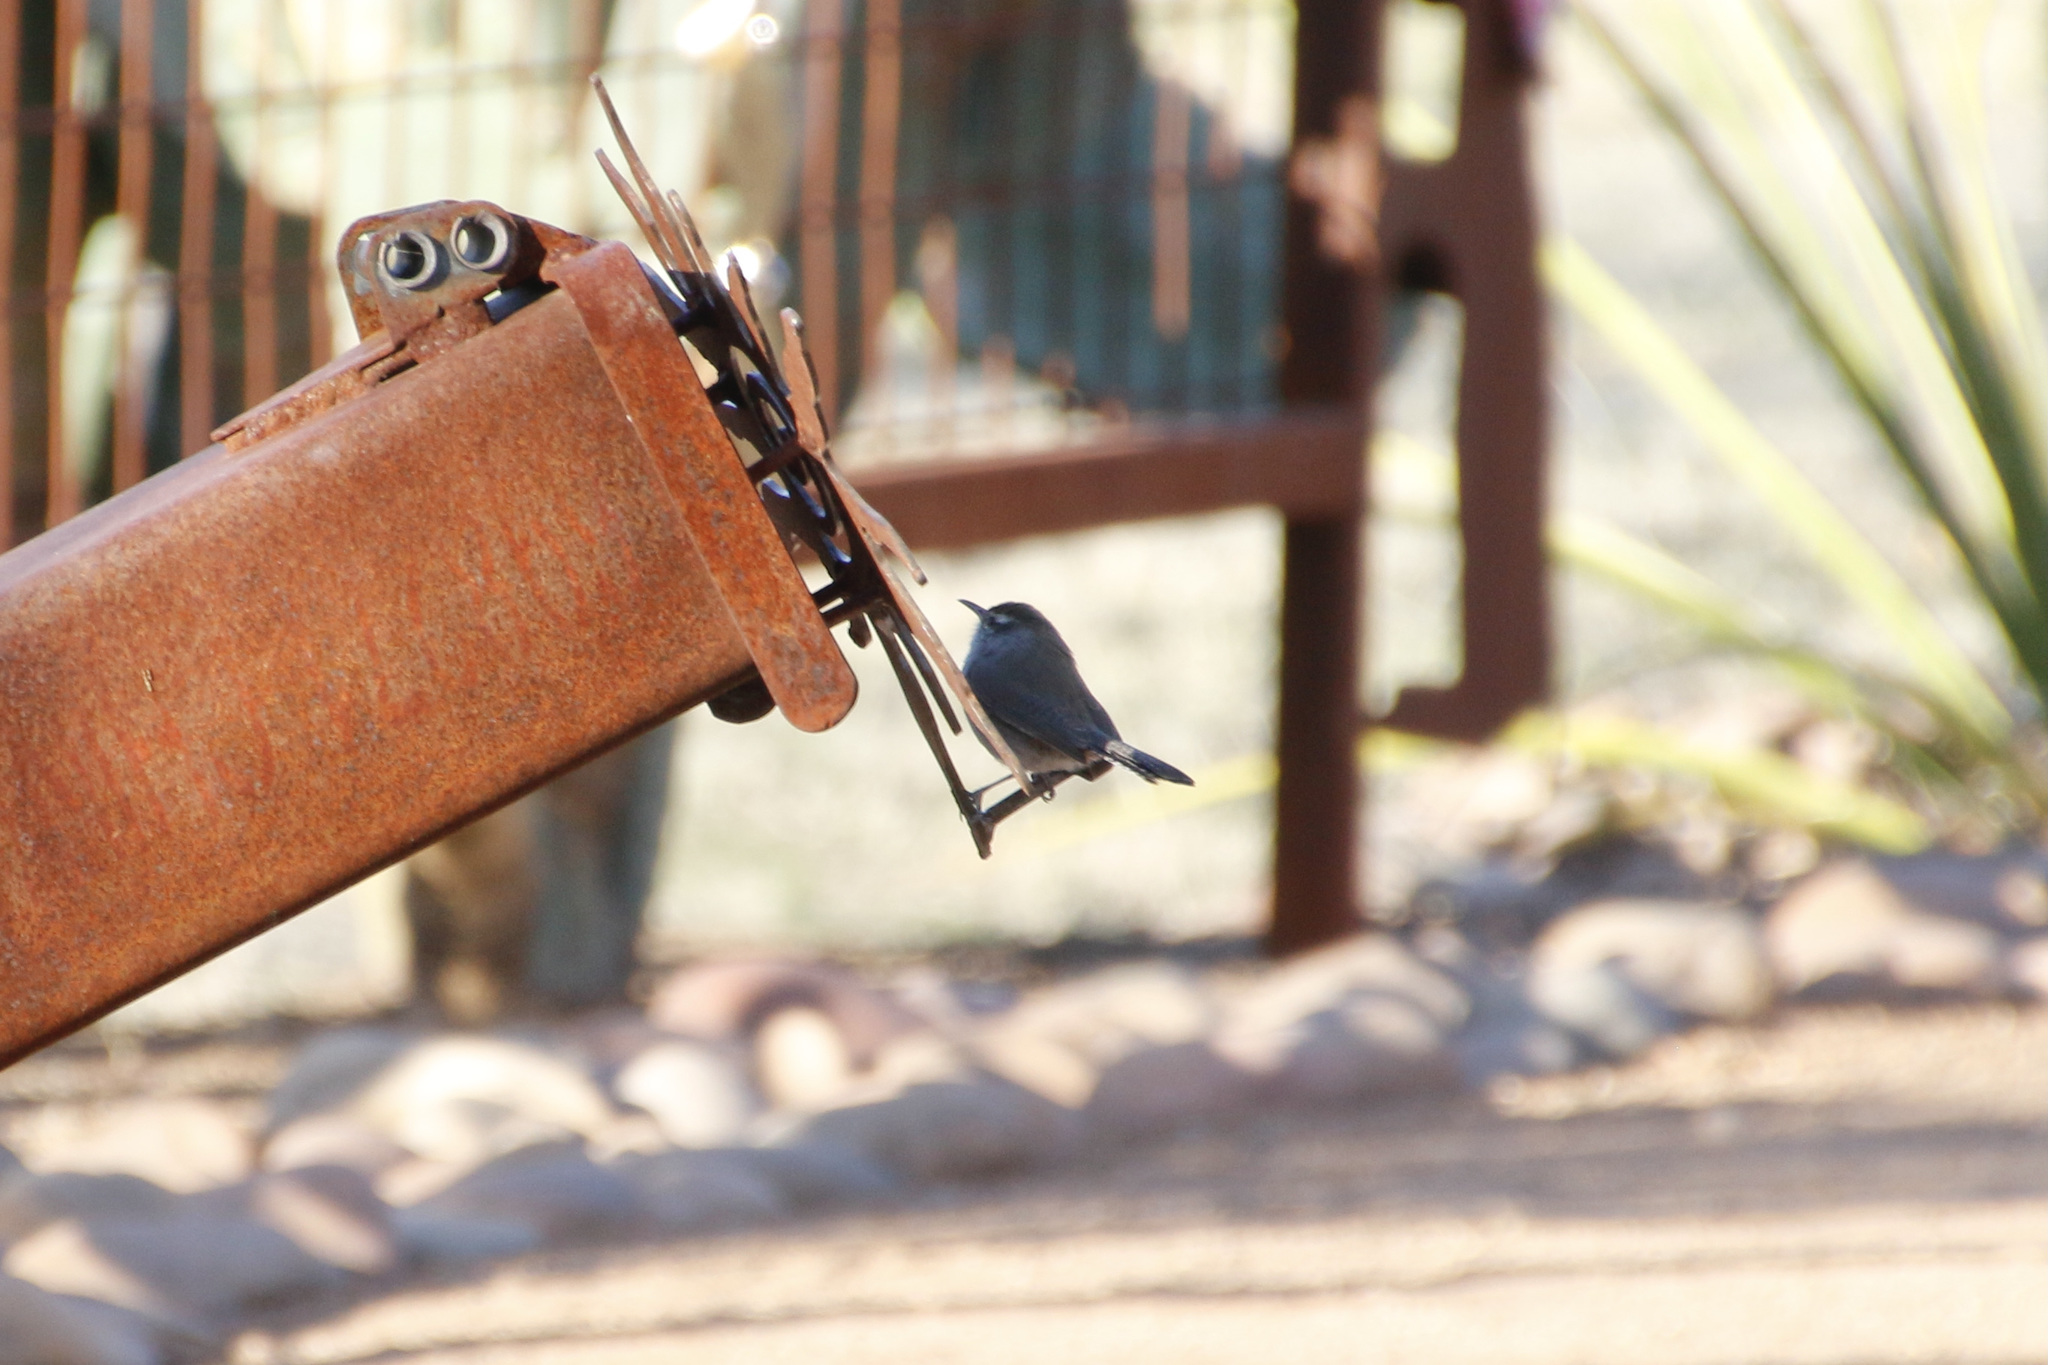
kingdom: Animalia
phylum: Chordata
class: Aves
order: Passeriformes
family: Troglodytidae
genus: Thryomanes
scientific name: Thryomanes bewickii
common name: Bewick's wren
